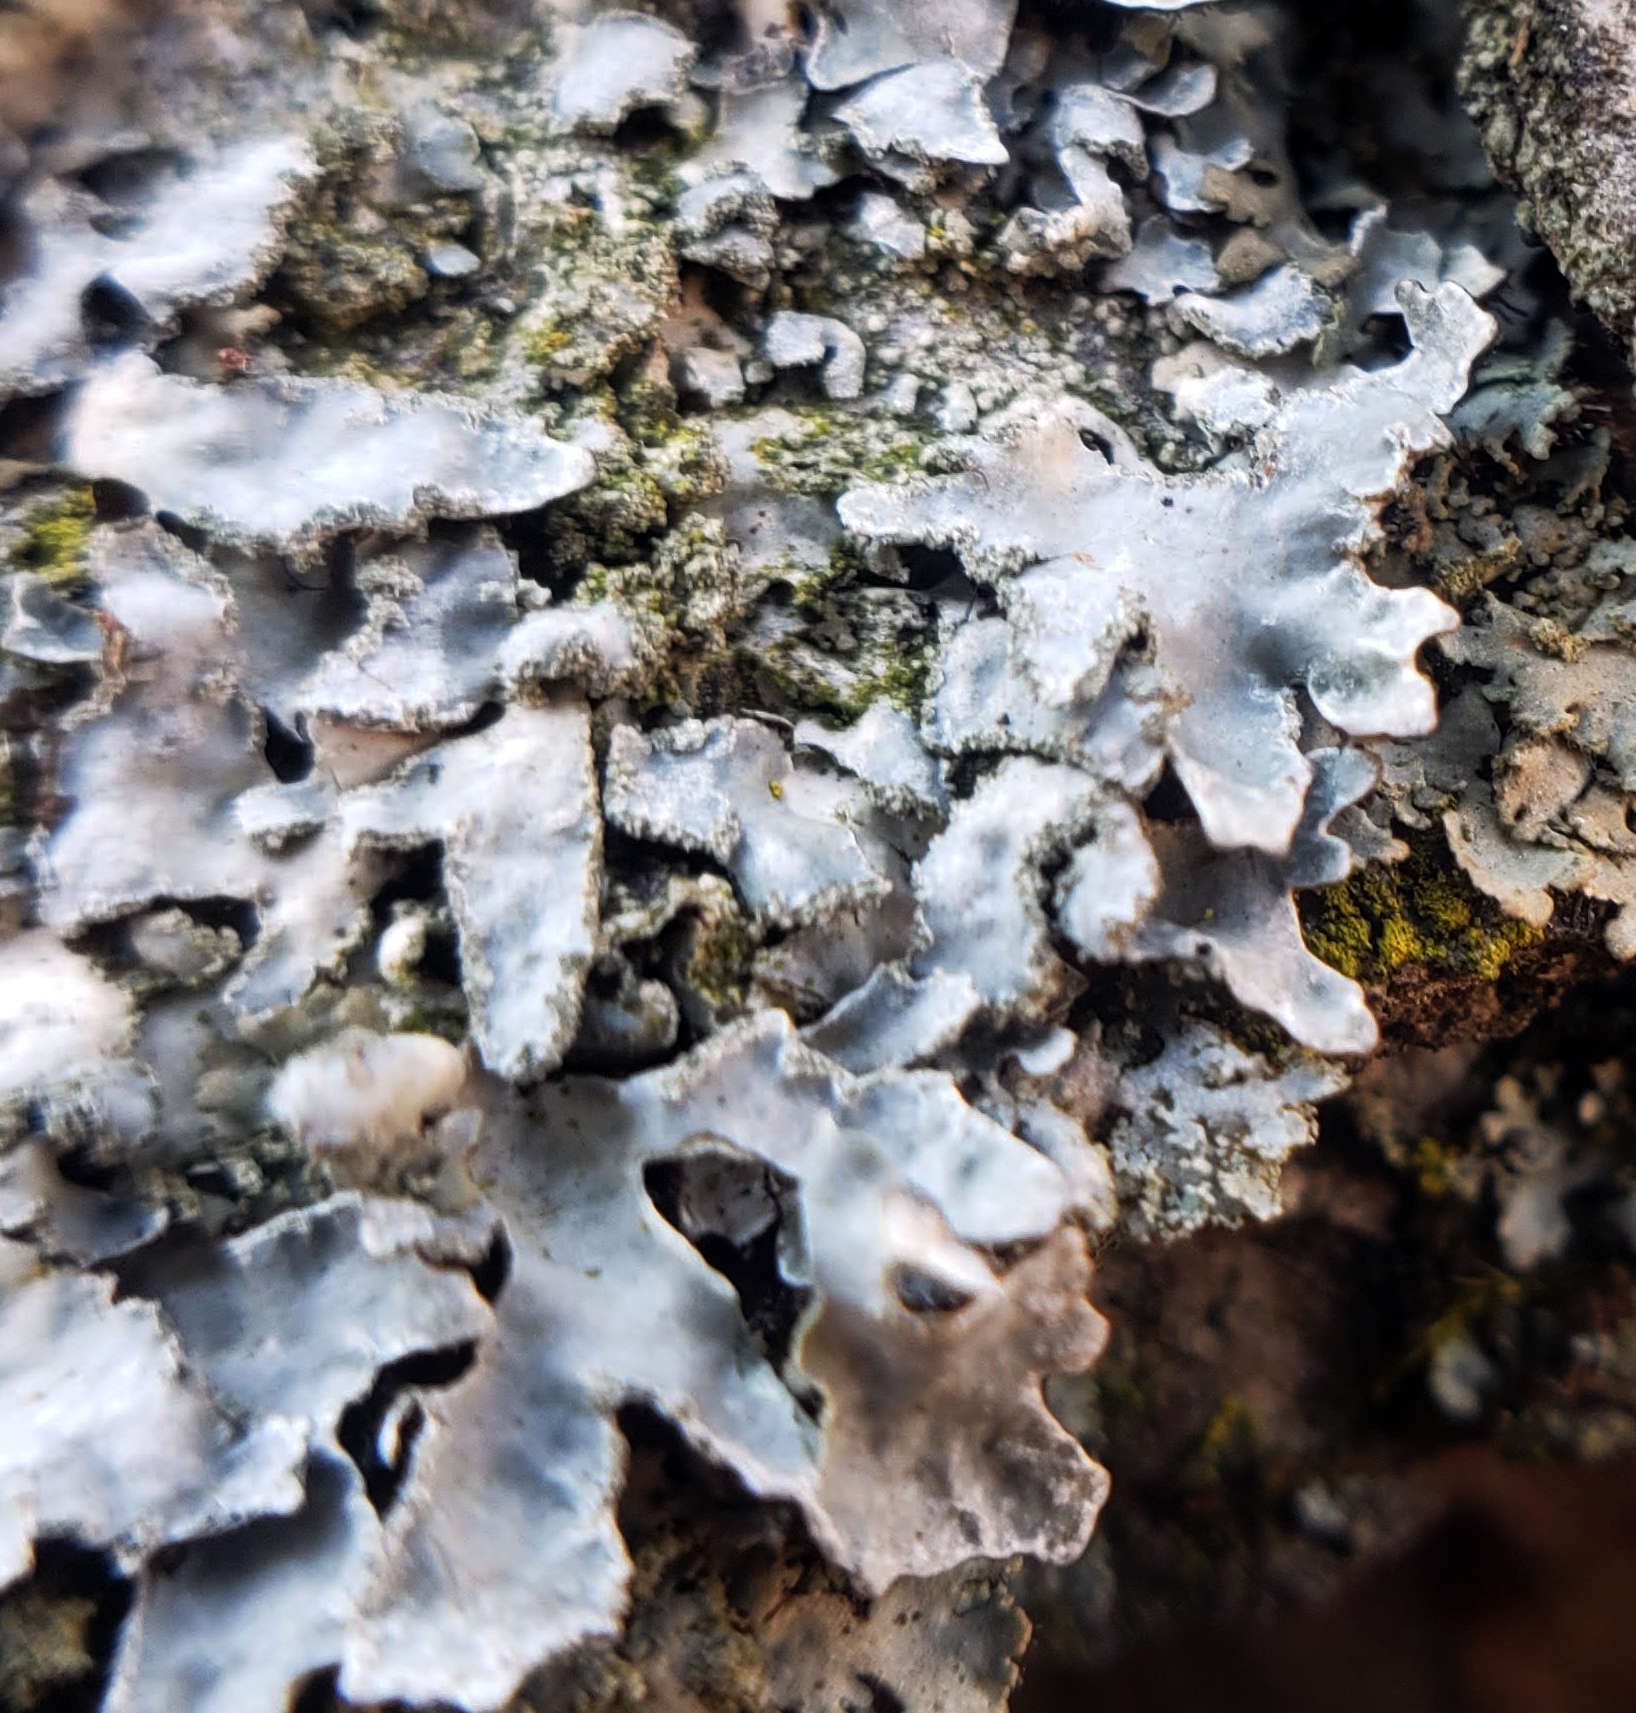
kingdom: Fungi
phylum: Ascomycota
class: Lecanoromycetes
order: Lecanorales
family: Parmeliaceae
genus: Parmelia
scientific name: Parmelia sulcata
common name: Netted shield lichen
